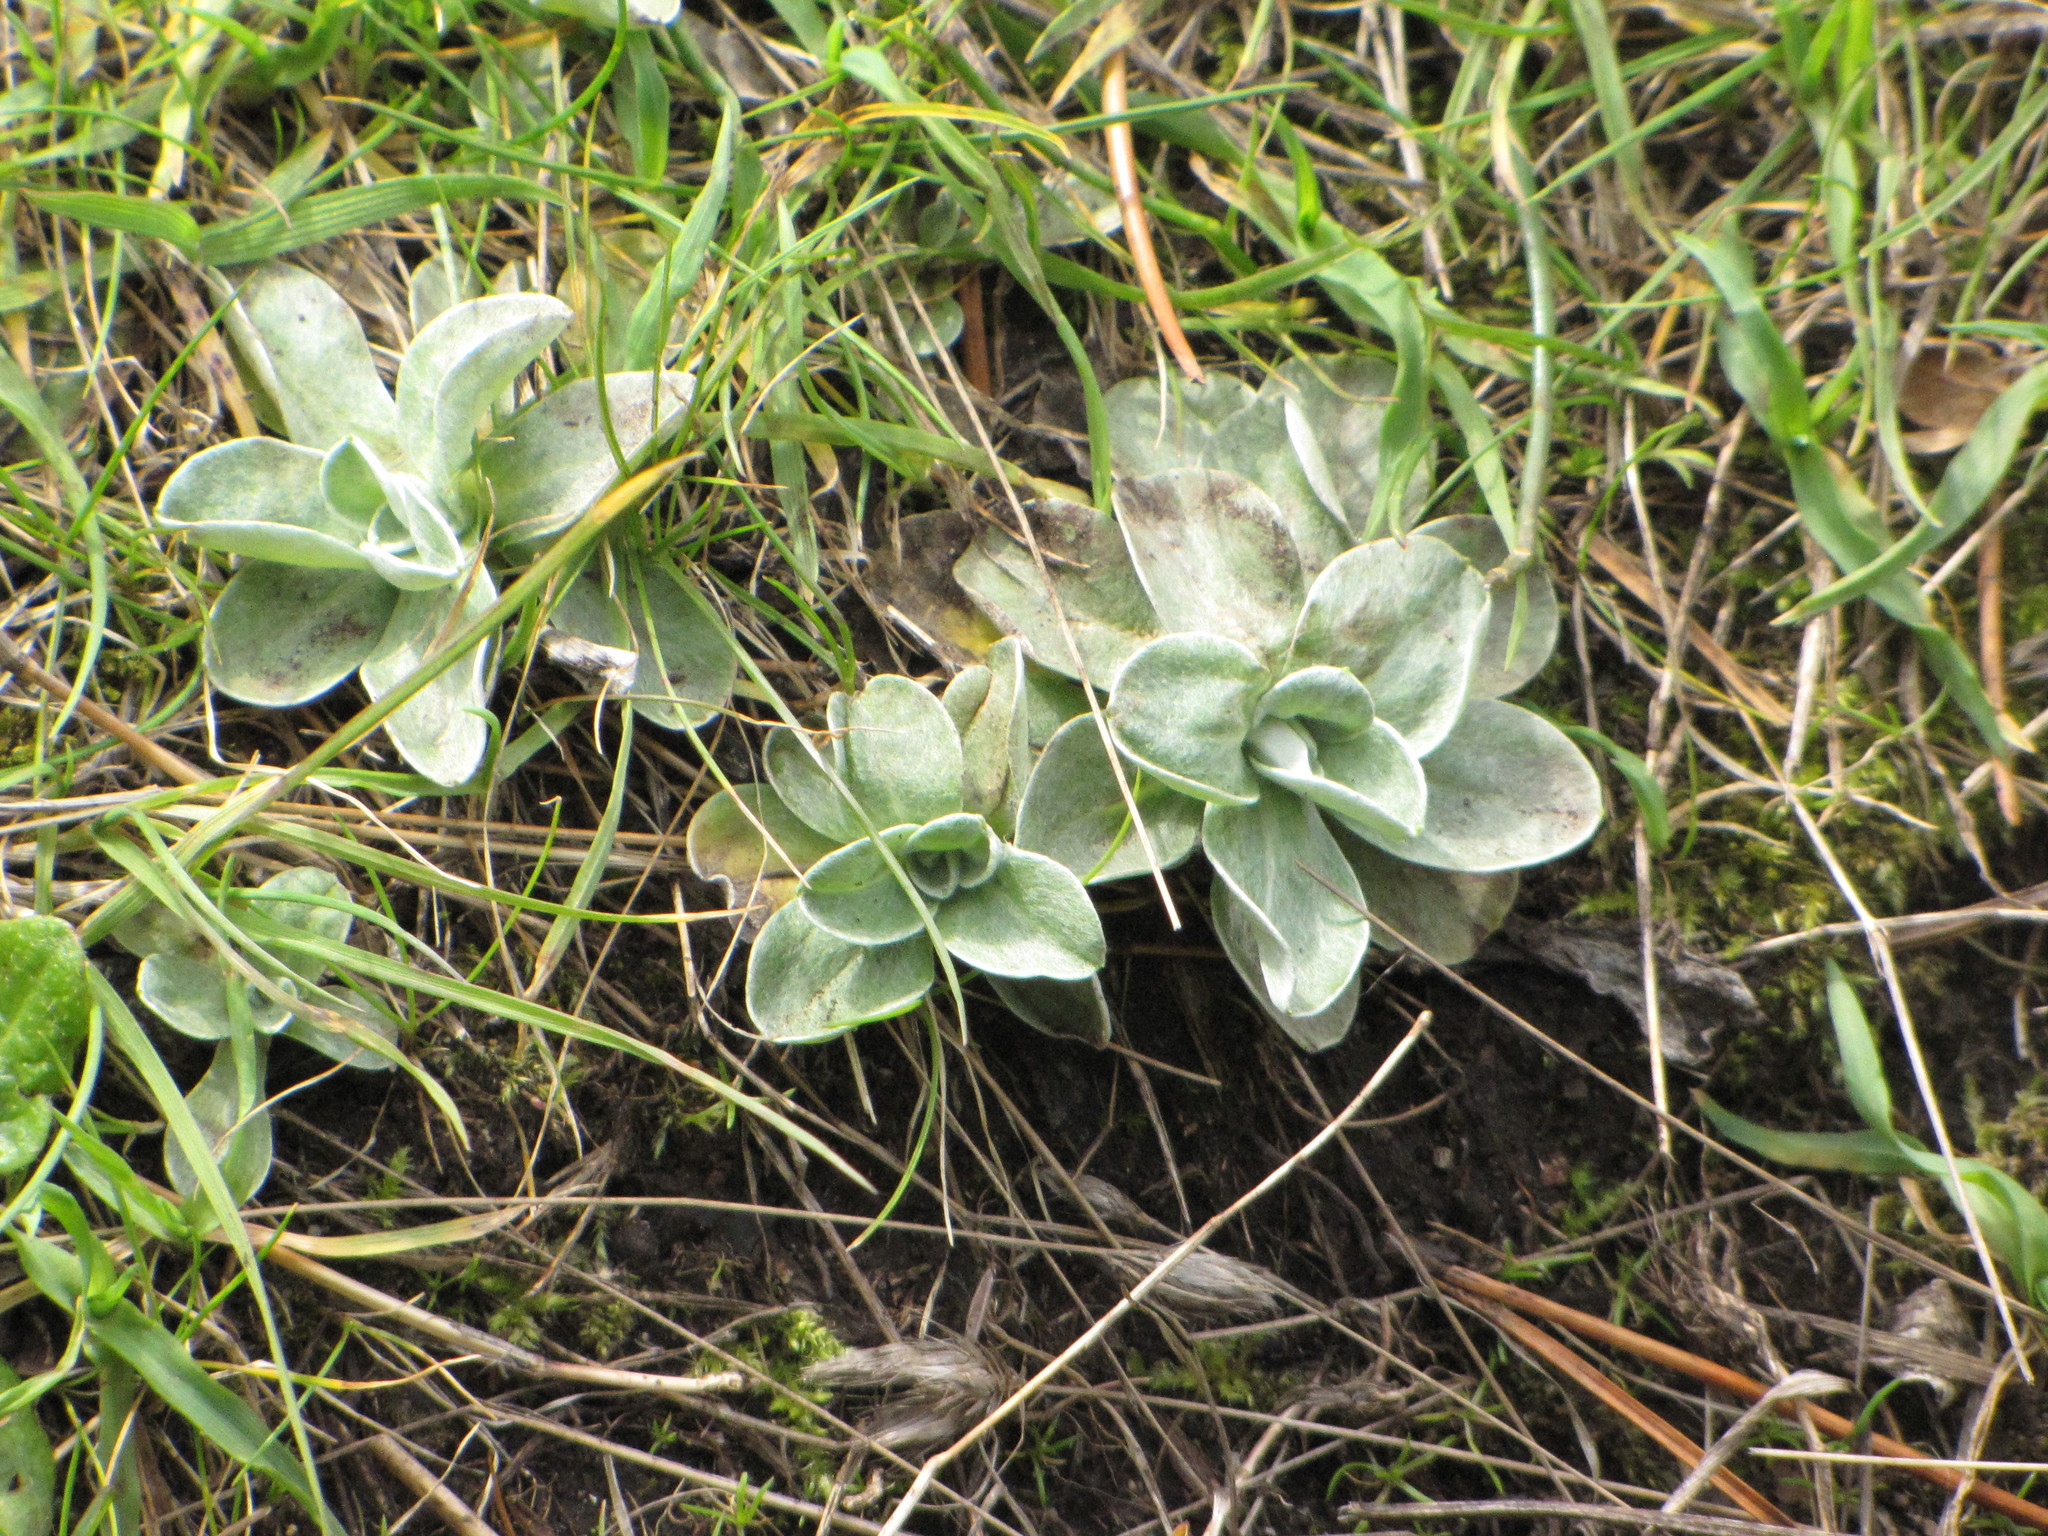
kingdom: Plantae
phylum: Tracheophyta
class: Magnoliopsida
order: Asterales
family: Asteraceae
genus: Gamochaeta
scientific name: Gamochaeta ustulata
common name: Pacific cudweed
